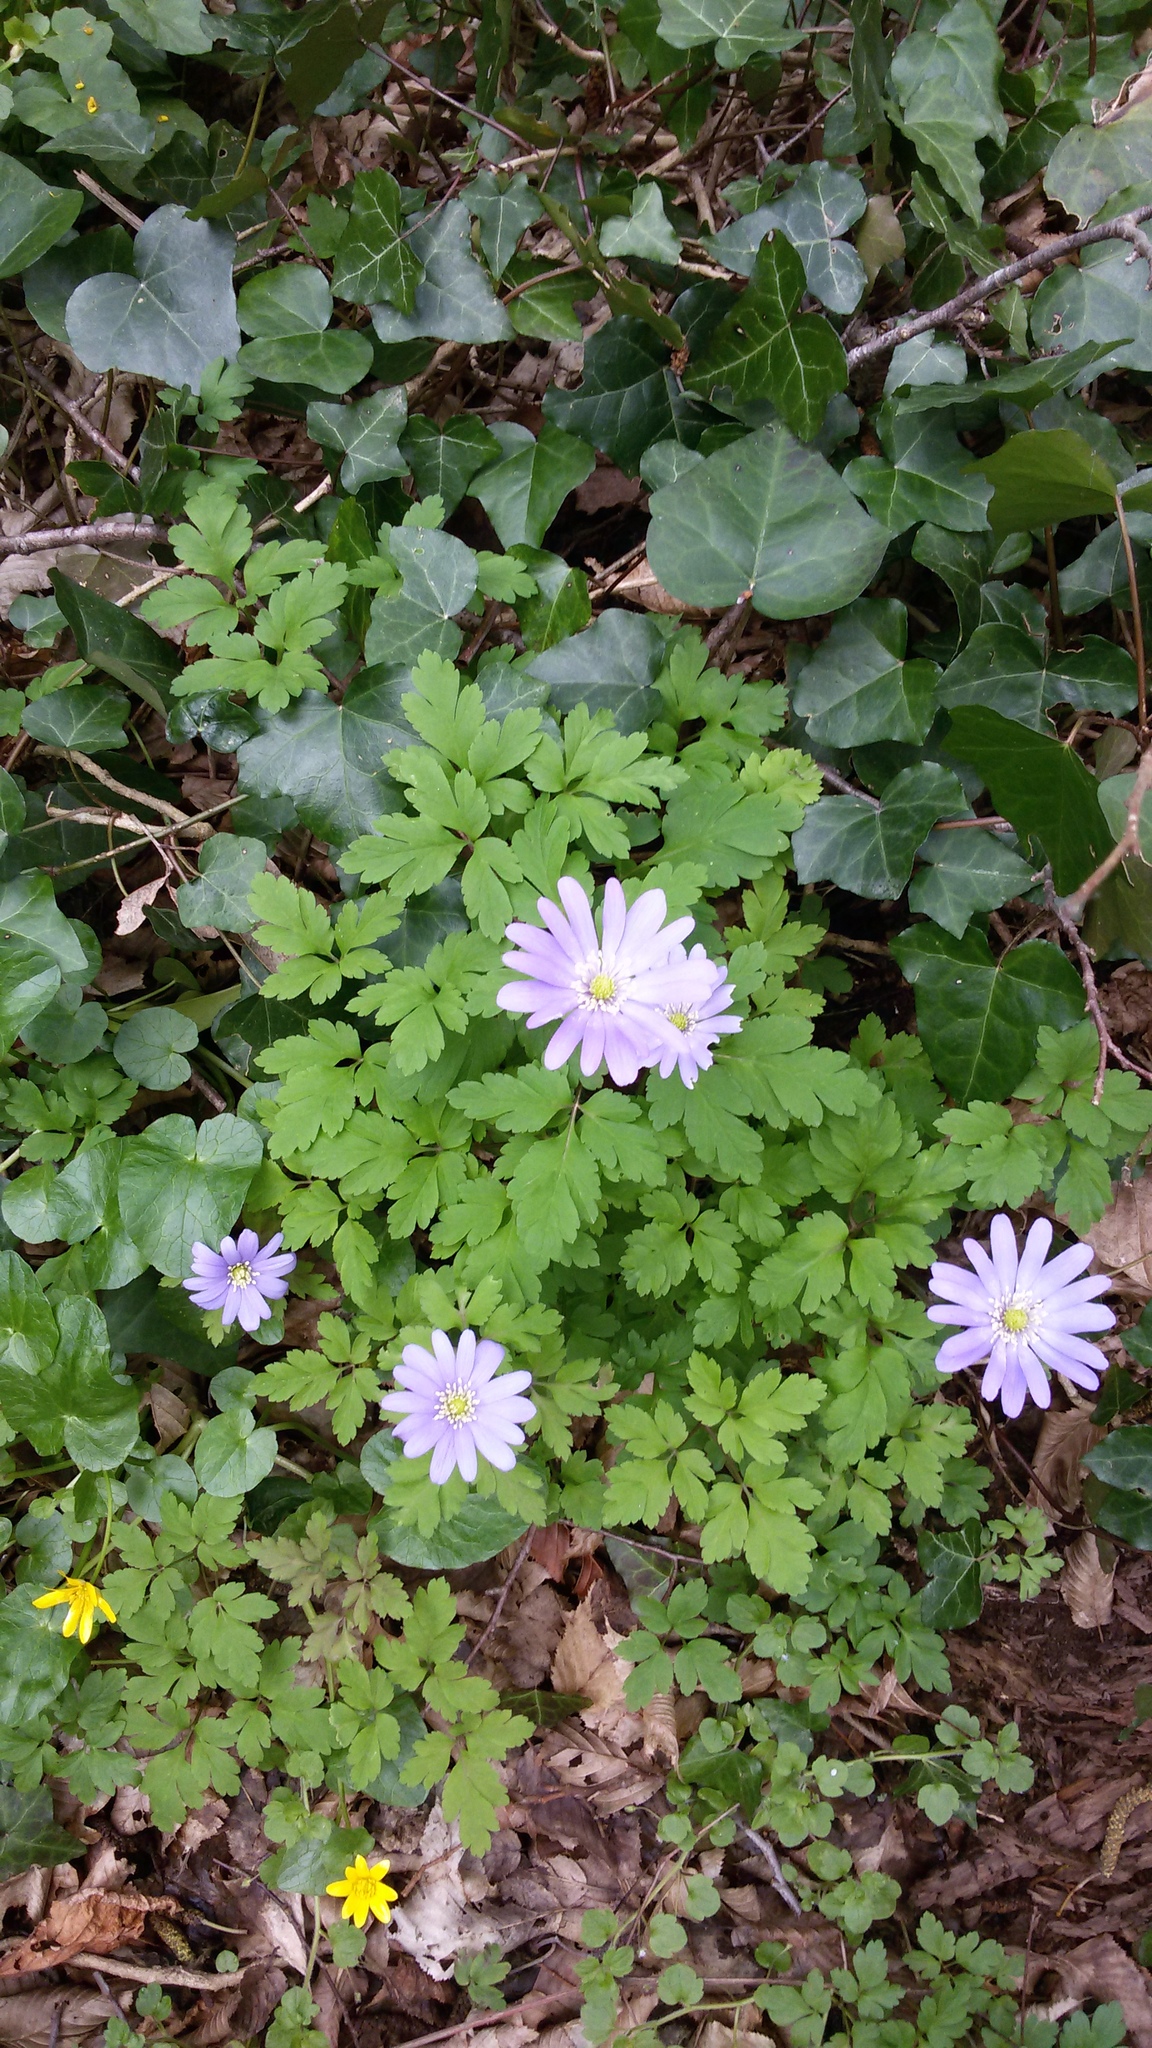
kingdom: Plantae
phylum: Tracheophyta
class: Magnoliopsida
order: Ranunculales
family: Ranunculaceae
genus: Anemone
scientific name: Anemone apennina
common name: Blue anemone
